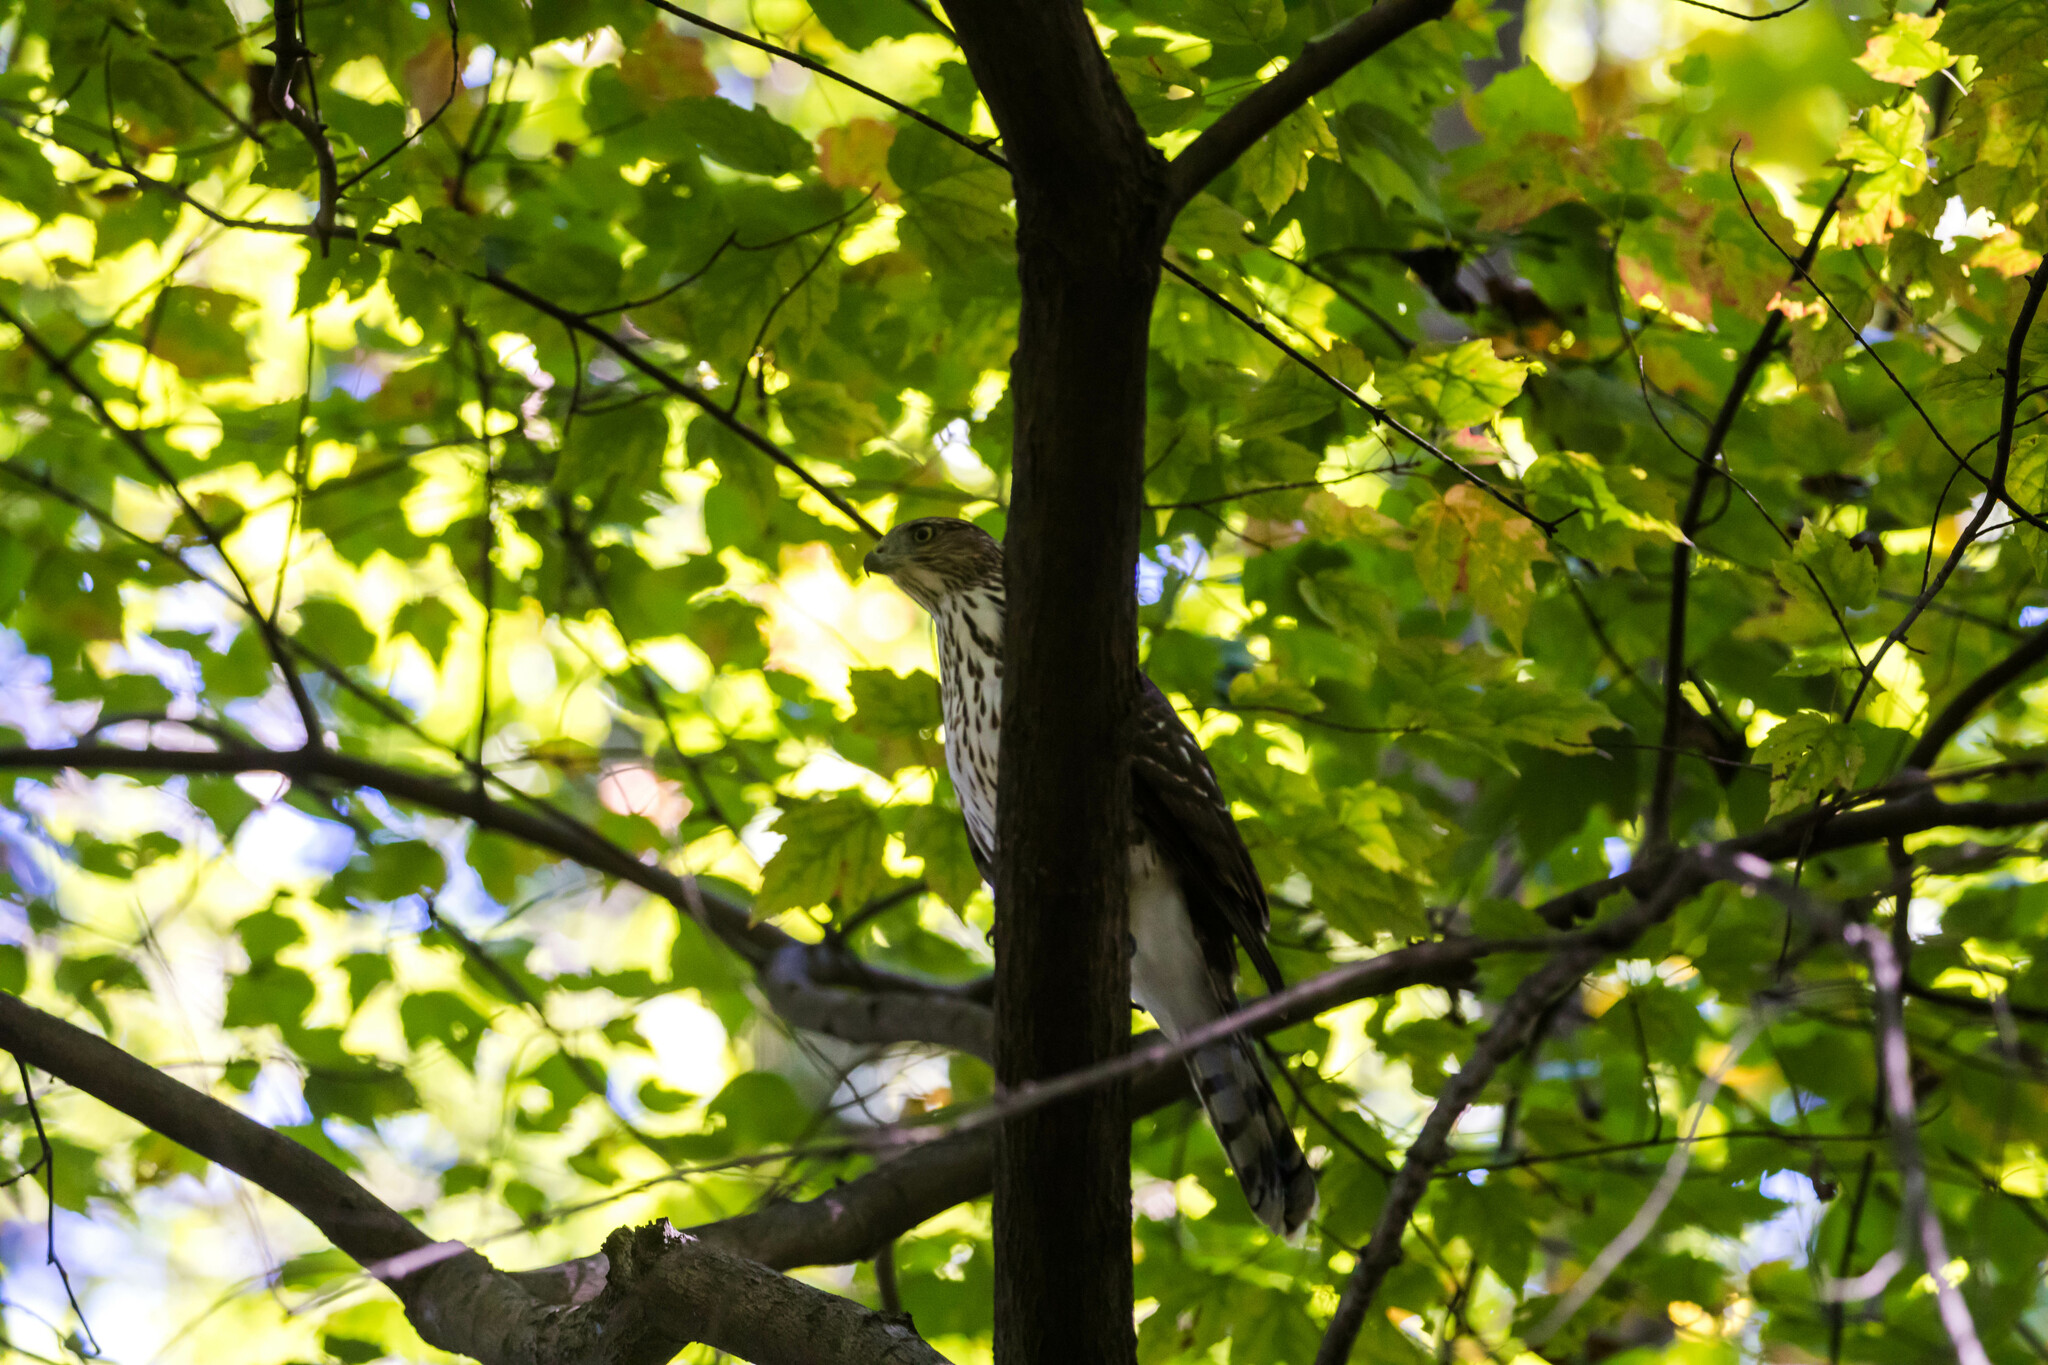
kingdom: Animalia
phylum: Chordata
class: Aves
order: Accipitriformes
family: Accipitridae
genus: Accipiter
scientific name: Accipiter cooperii
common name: Cooper's hawk
